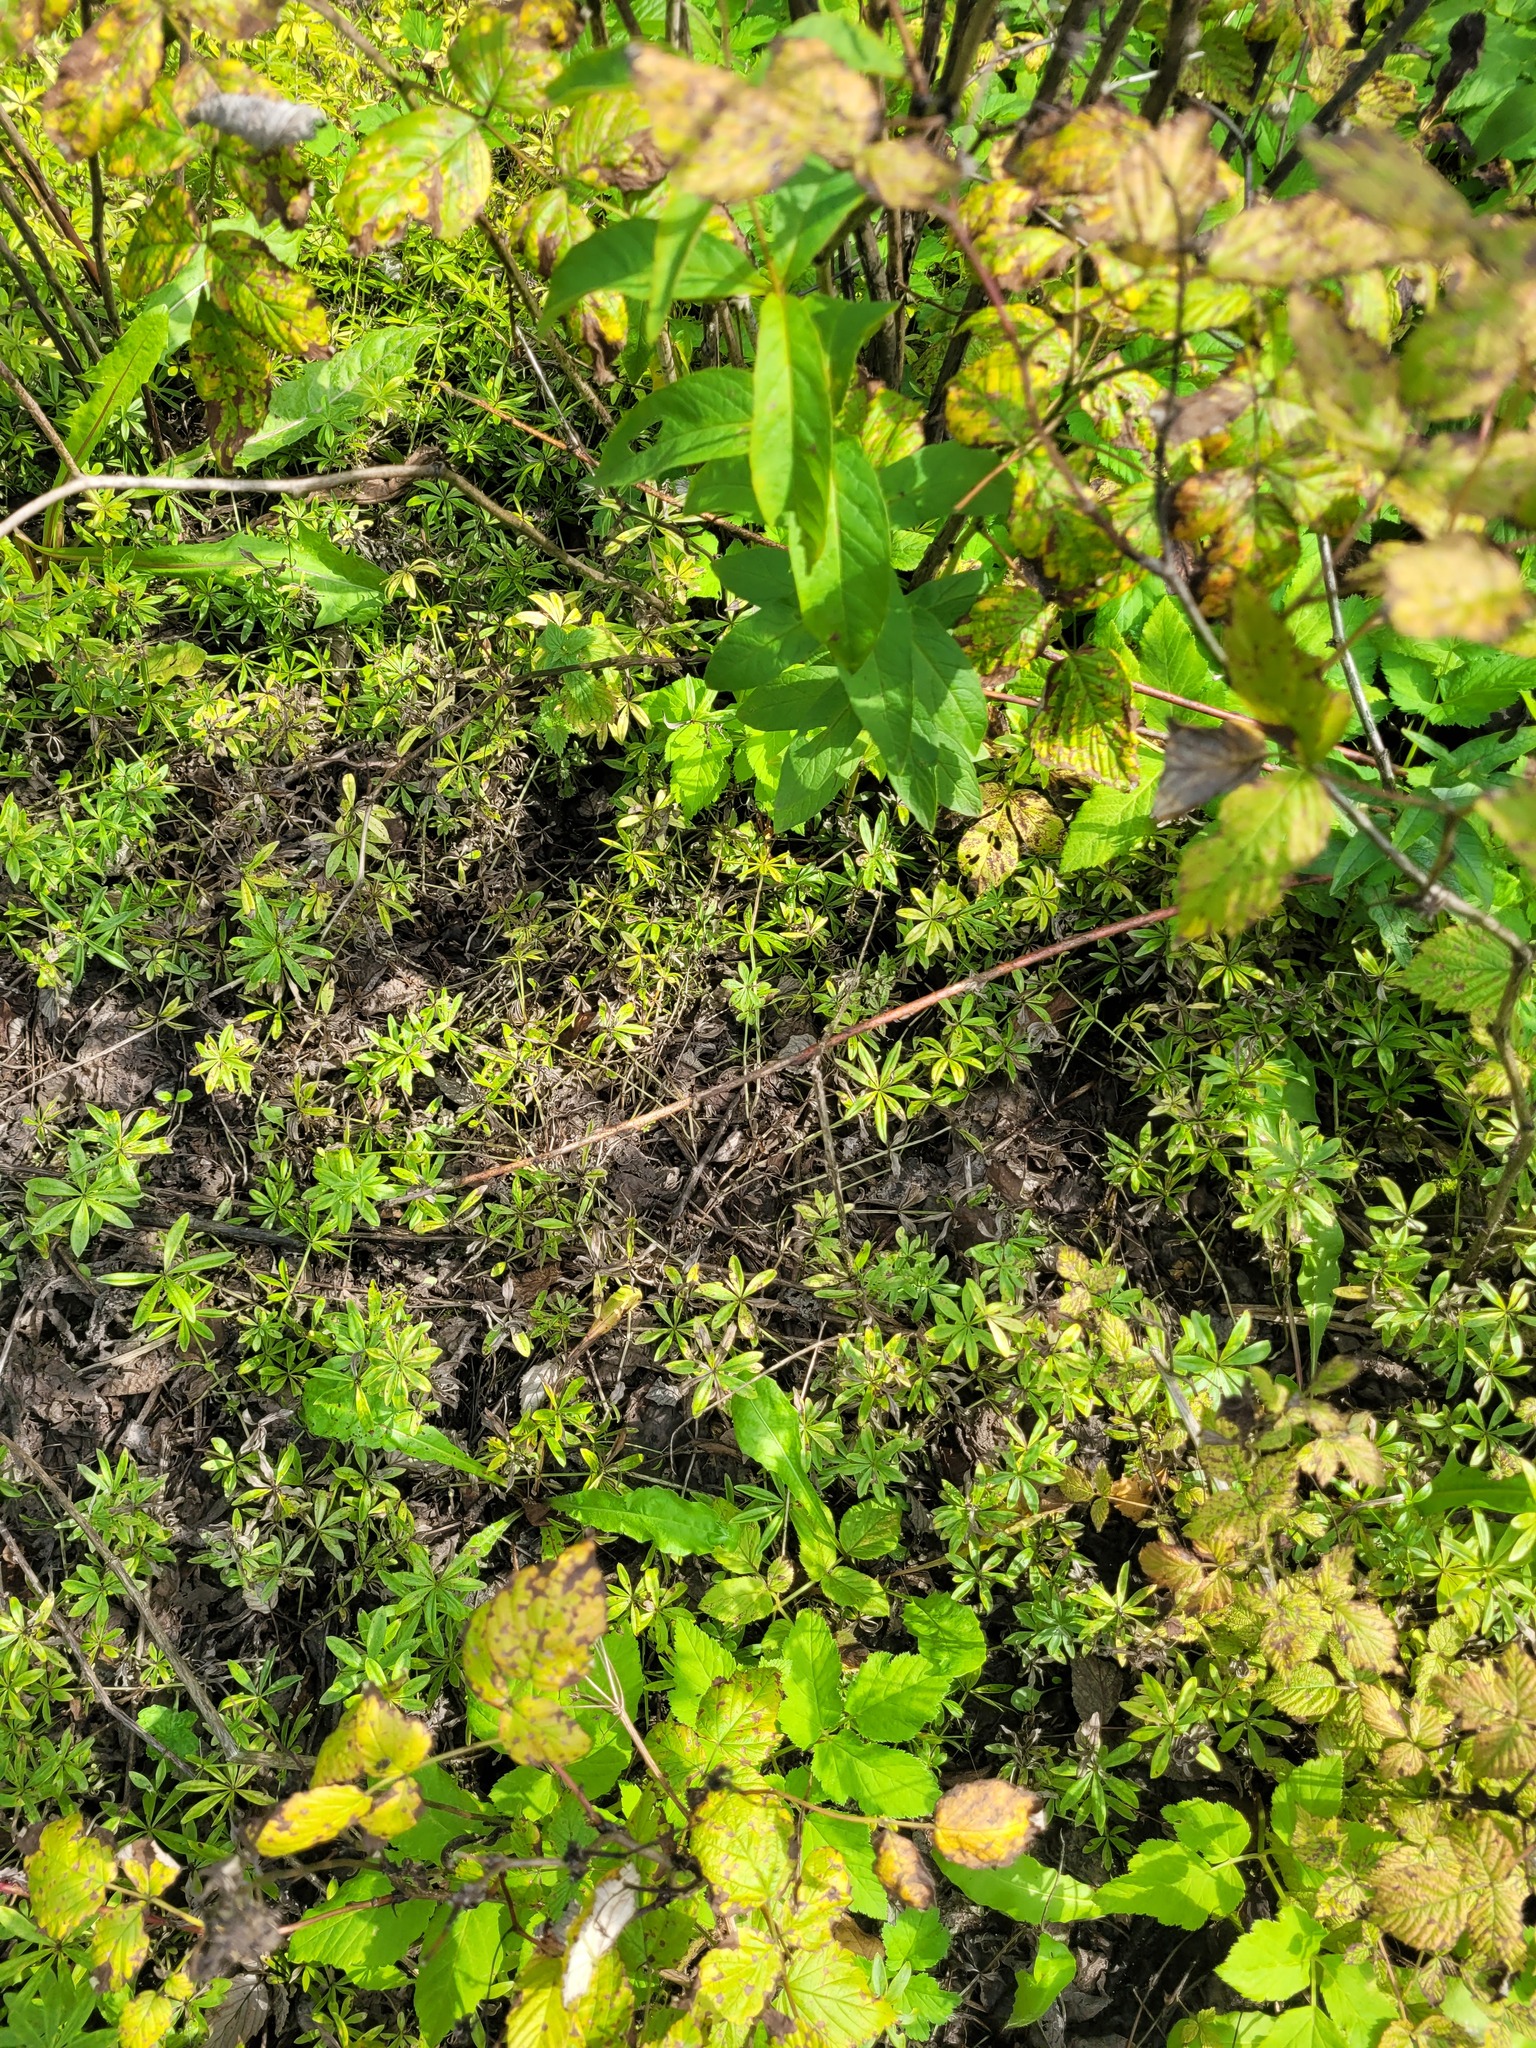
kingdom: Plantae
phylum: Tracheophyta
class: Magnoliopsida
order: Gentianales
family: Rubiaceae
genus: Galium
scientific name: Galium odoratum
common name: Sweet woodruff
